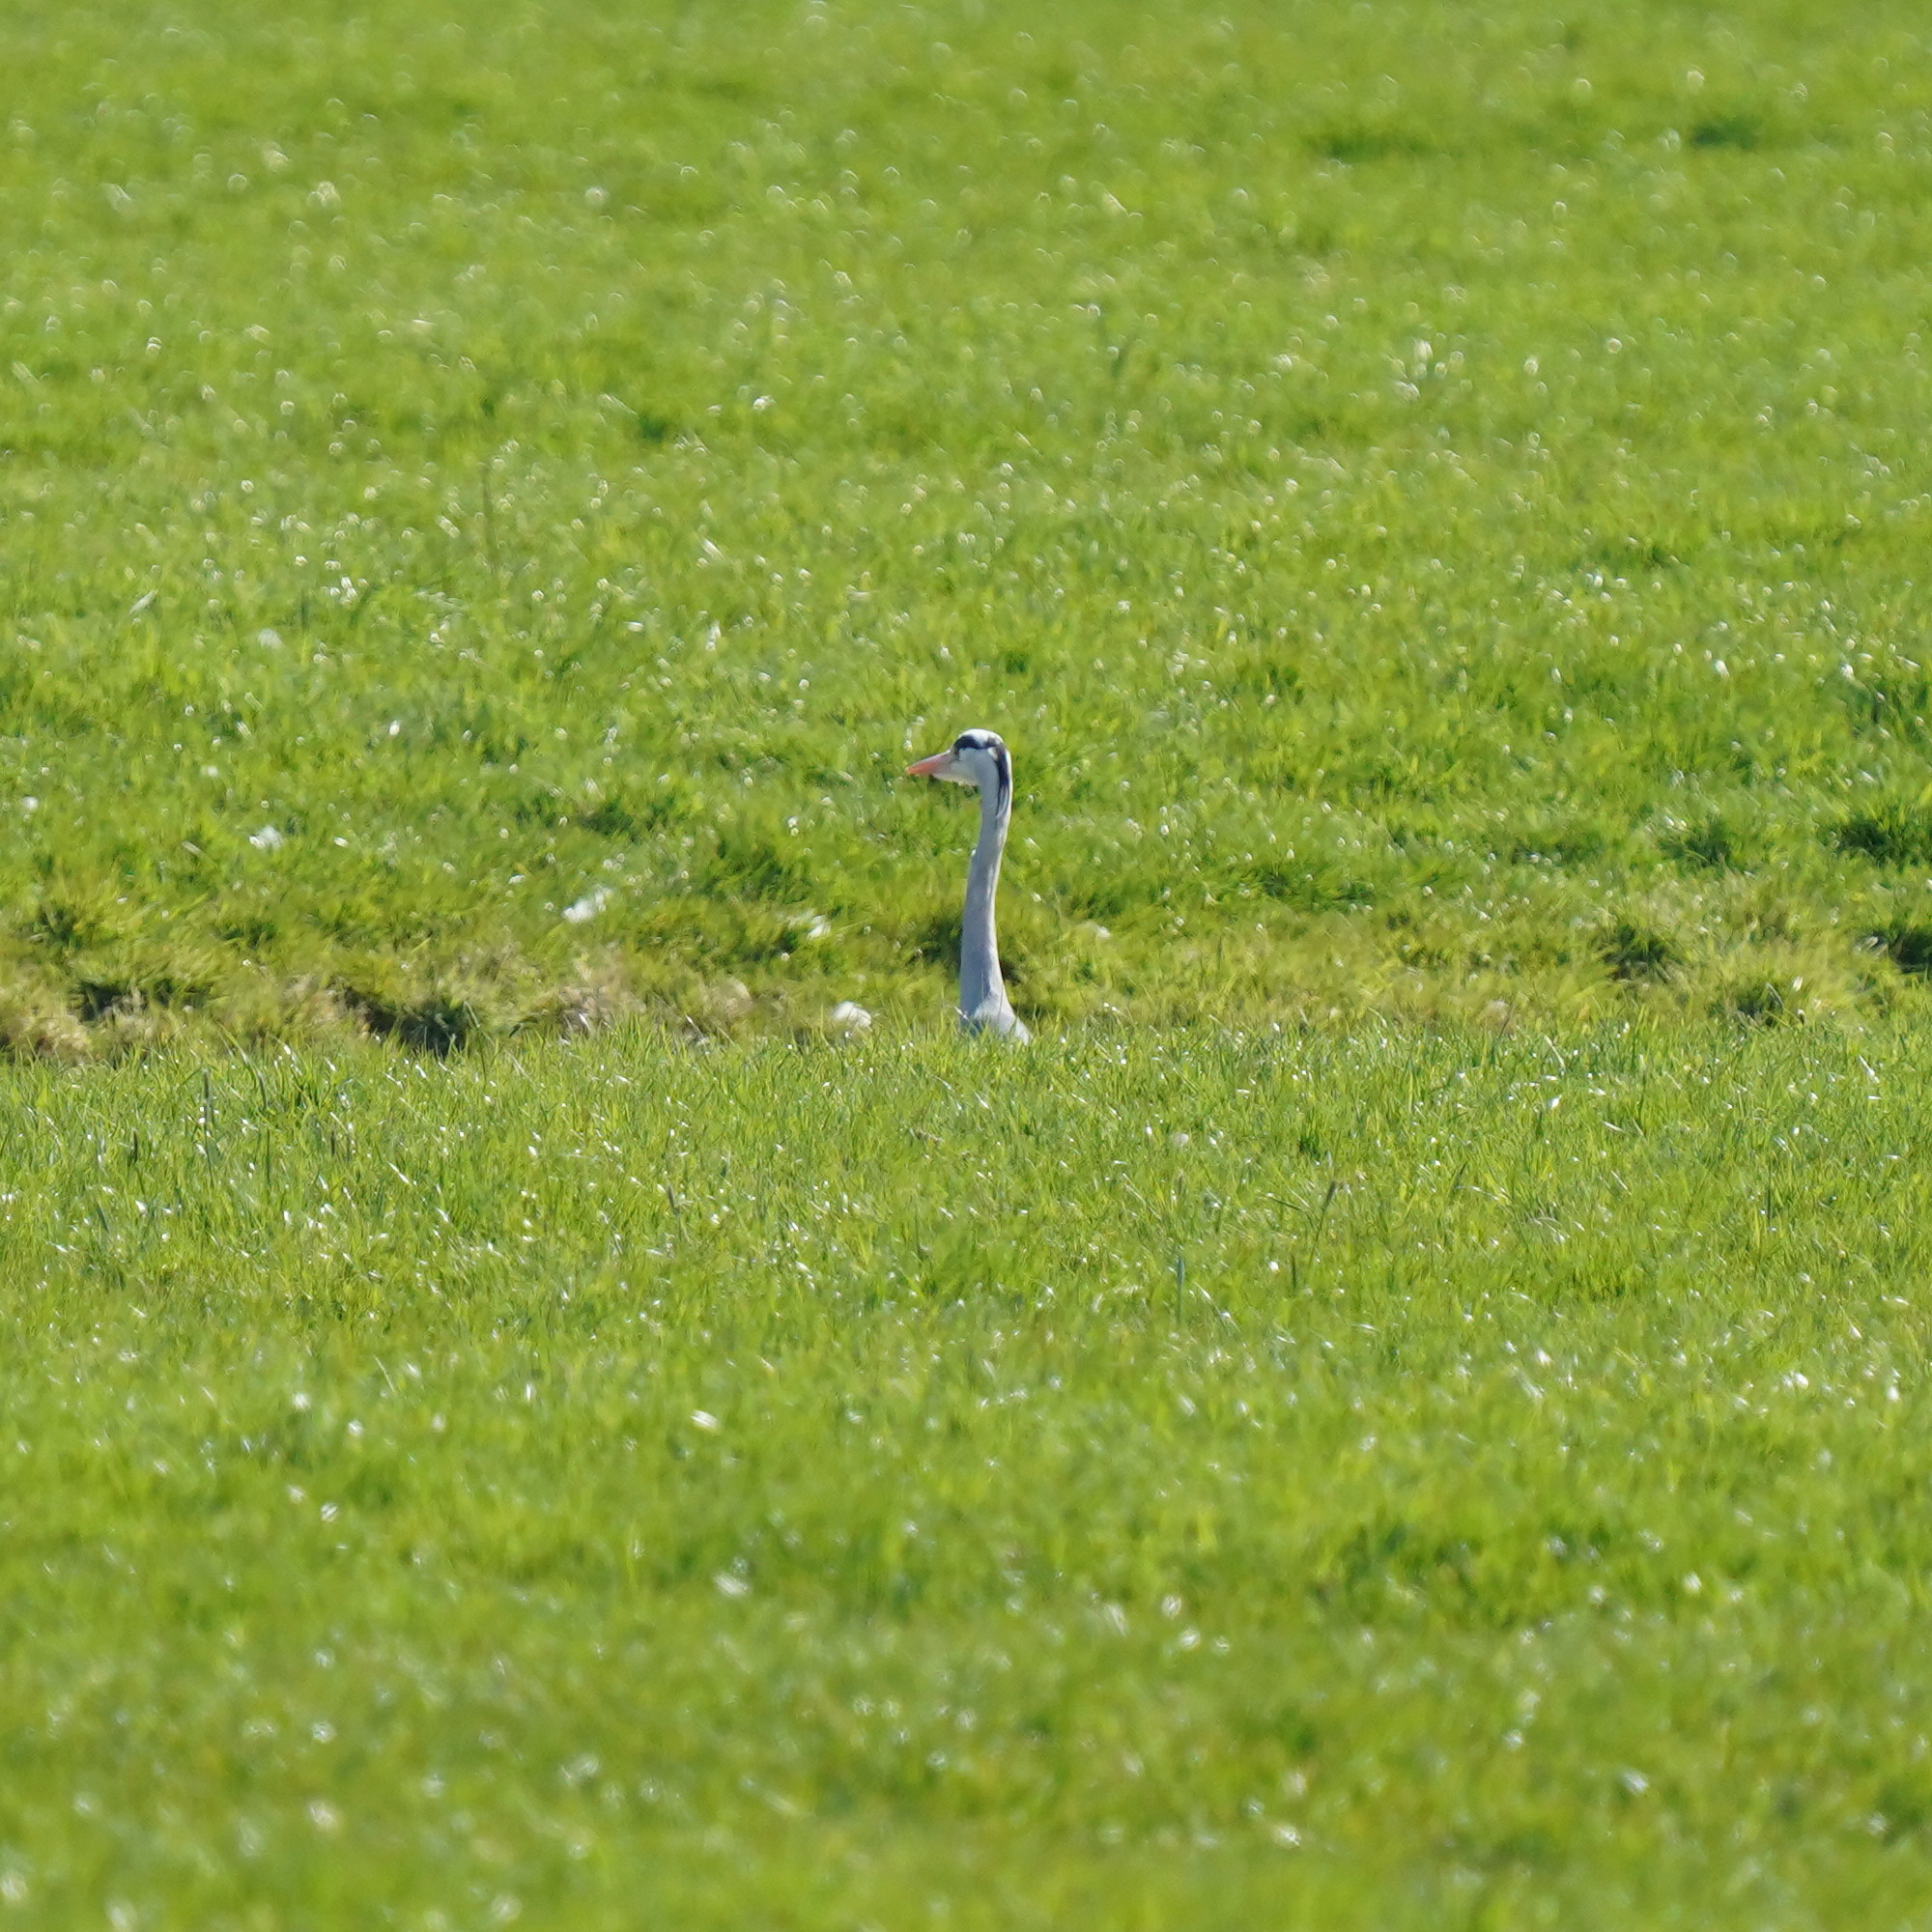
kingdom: Animalia
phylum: Chordata
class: Aves
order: Pelecaniformes
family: Ardeidae
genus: Ardea
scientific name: Ardea cinerea
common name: Grey heron
